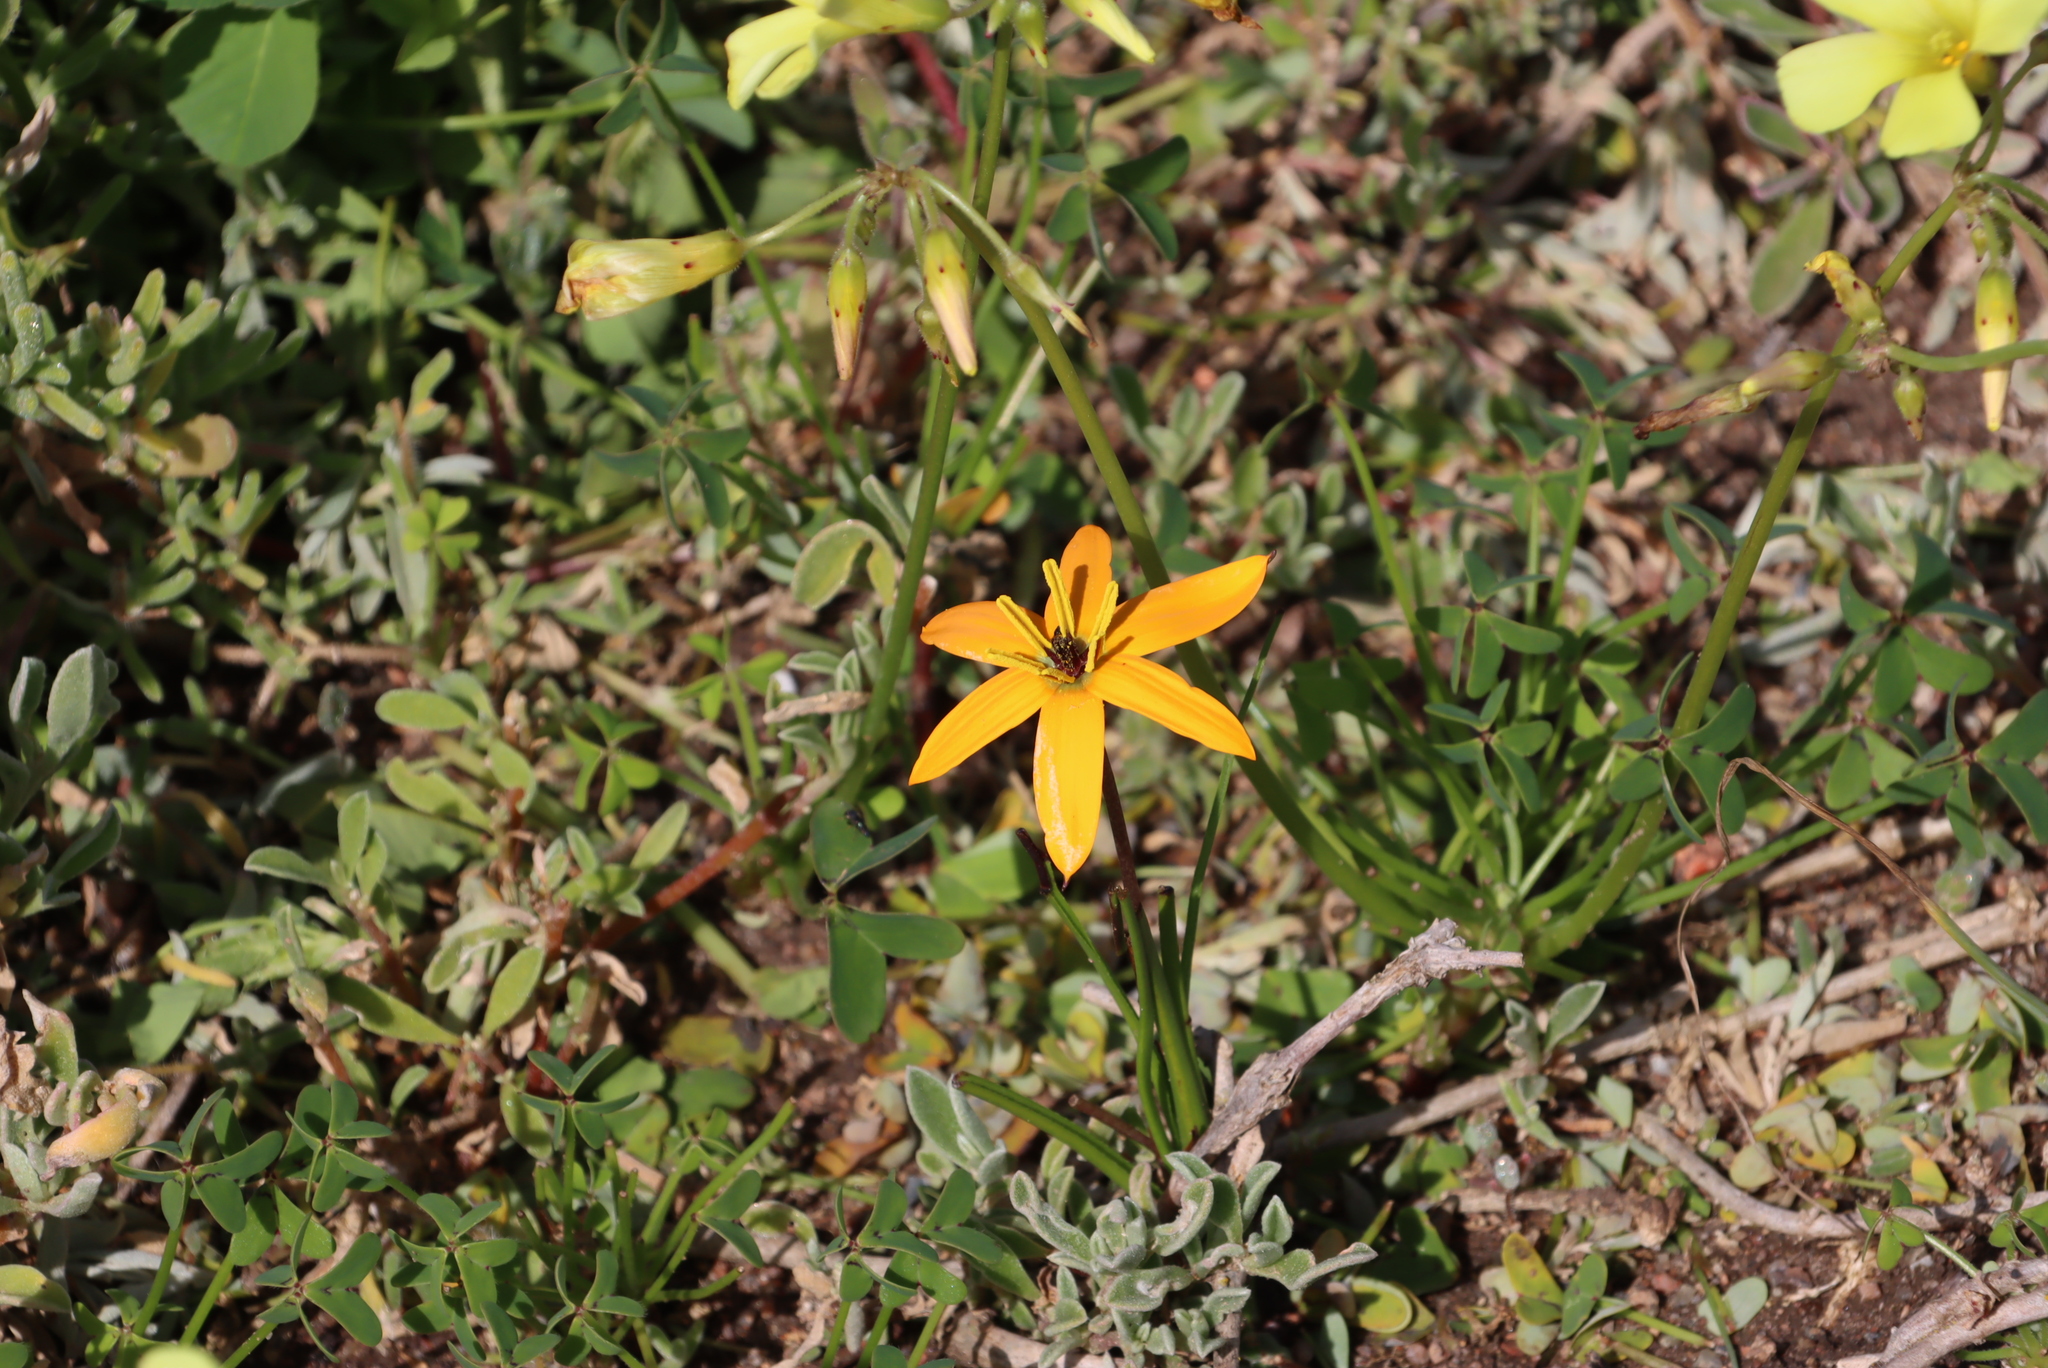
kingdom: Plantae
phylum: Tracheophyta
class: Liliopsida
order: Asparagales
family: Hypoxidaceae
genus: Pauridia
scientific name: Pauridia linearis
